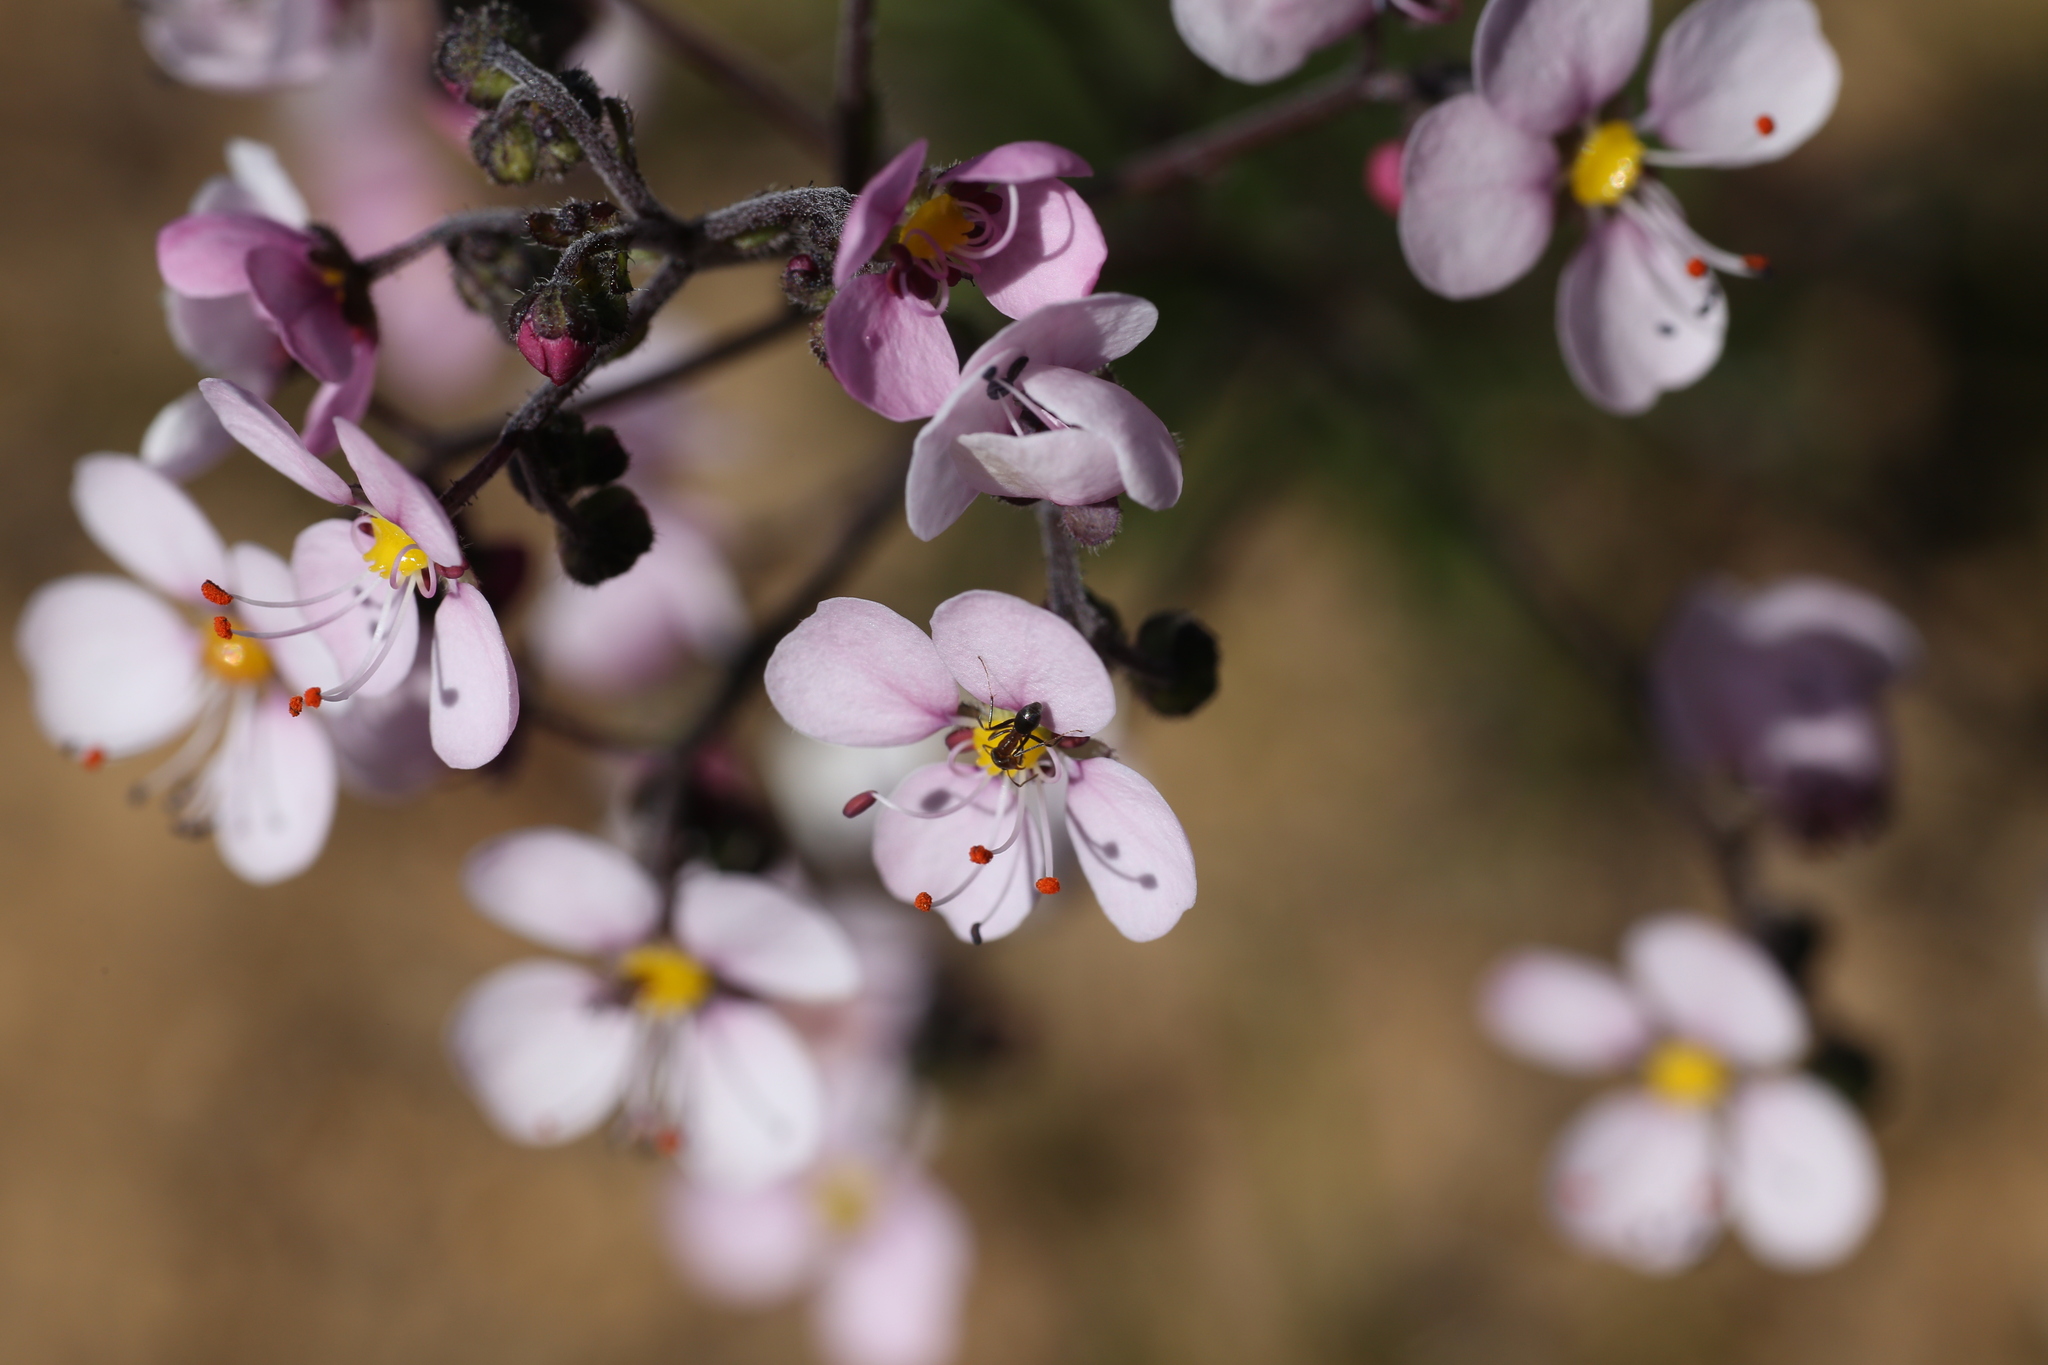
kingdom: Plantae
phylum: Tracheophyta
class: Magnoliopsida
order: Sapindales
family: Sapindaceae
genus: Diplopeltis
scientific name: Diplopeltis huegelii
